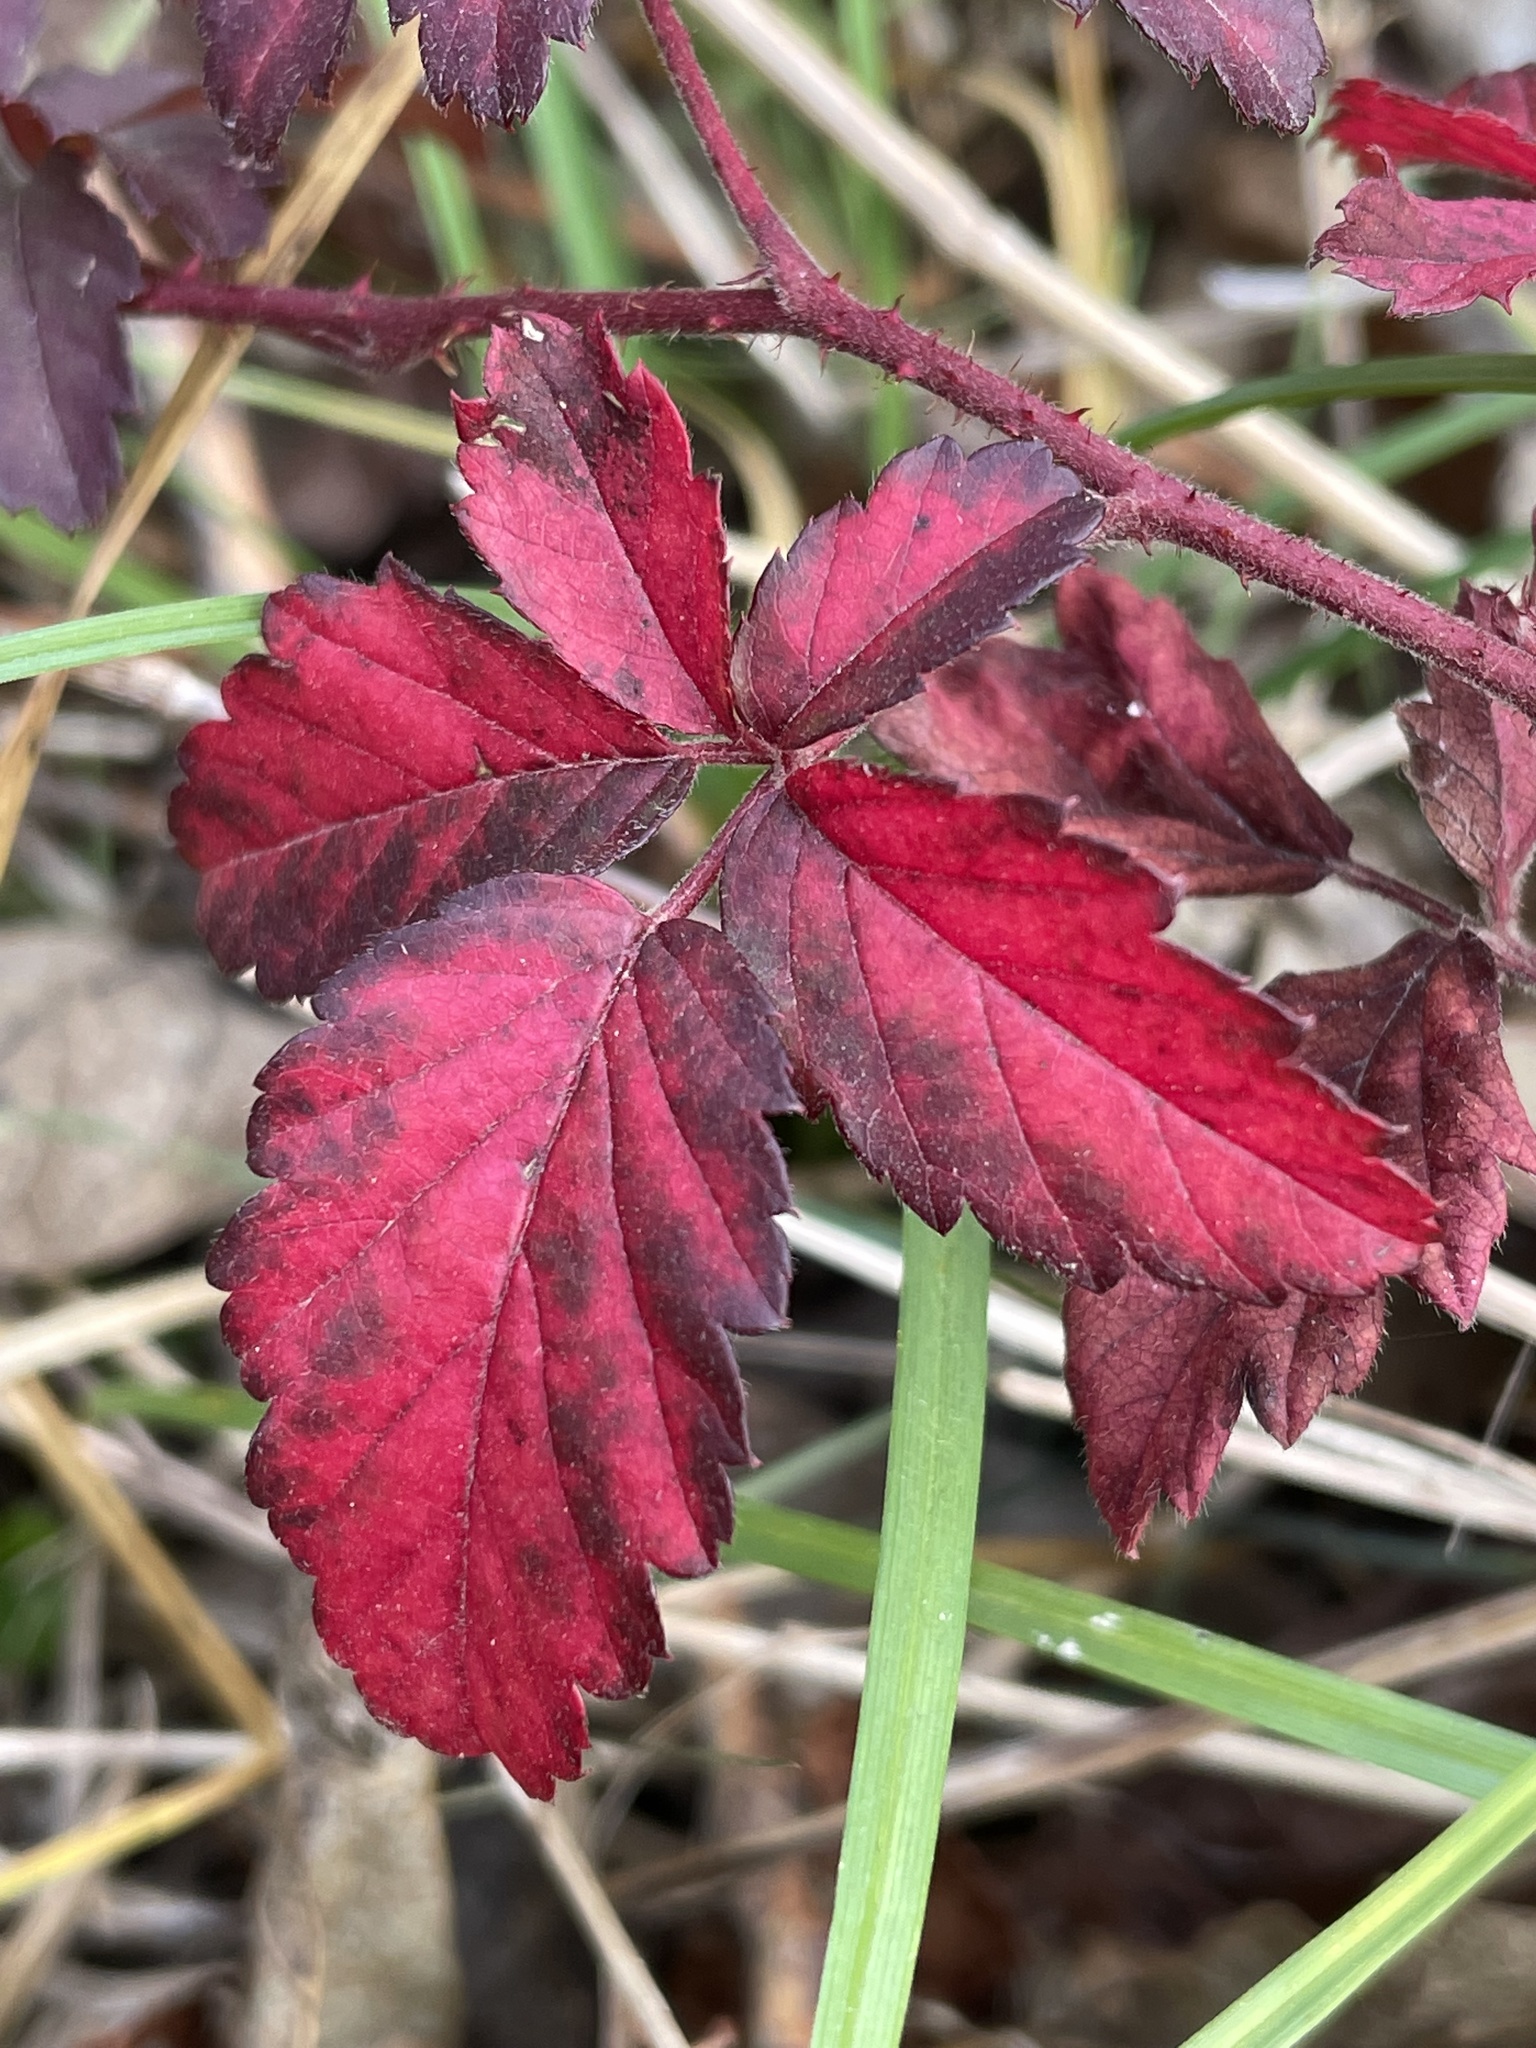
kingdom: Plantae
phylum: Tracheophyta
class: Magnoliopsida
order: Rosales
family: Rosaceae
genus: Rubus
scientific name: Rubus trivialis
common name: Southern dewberry
